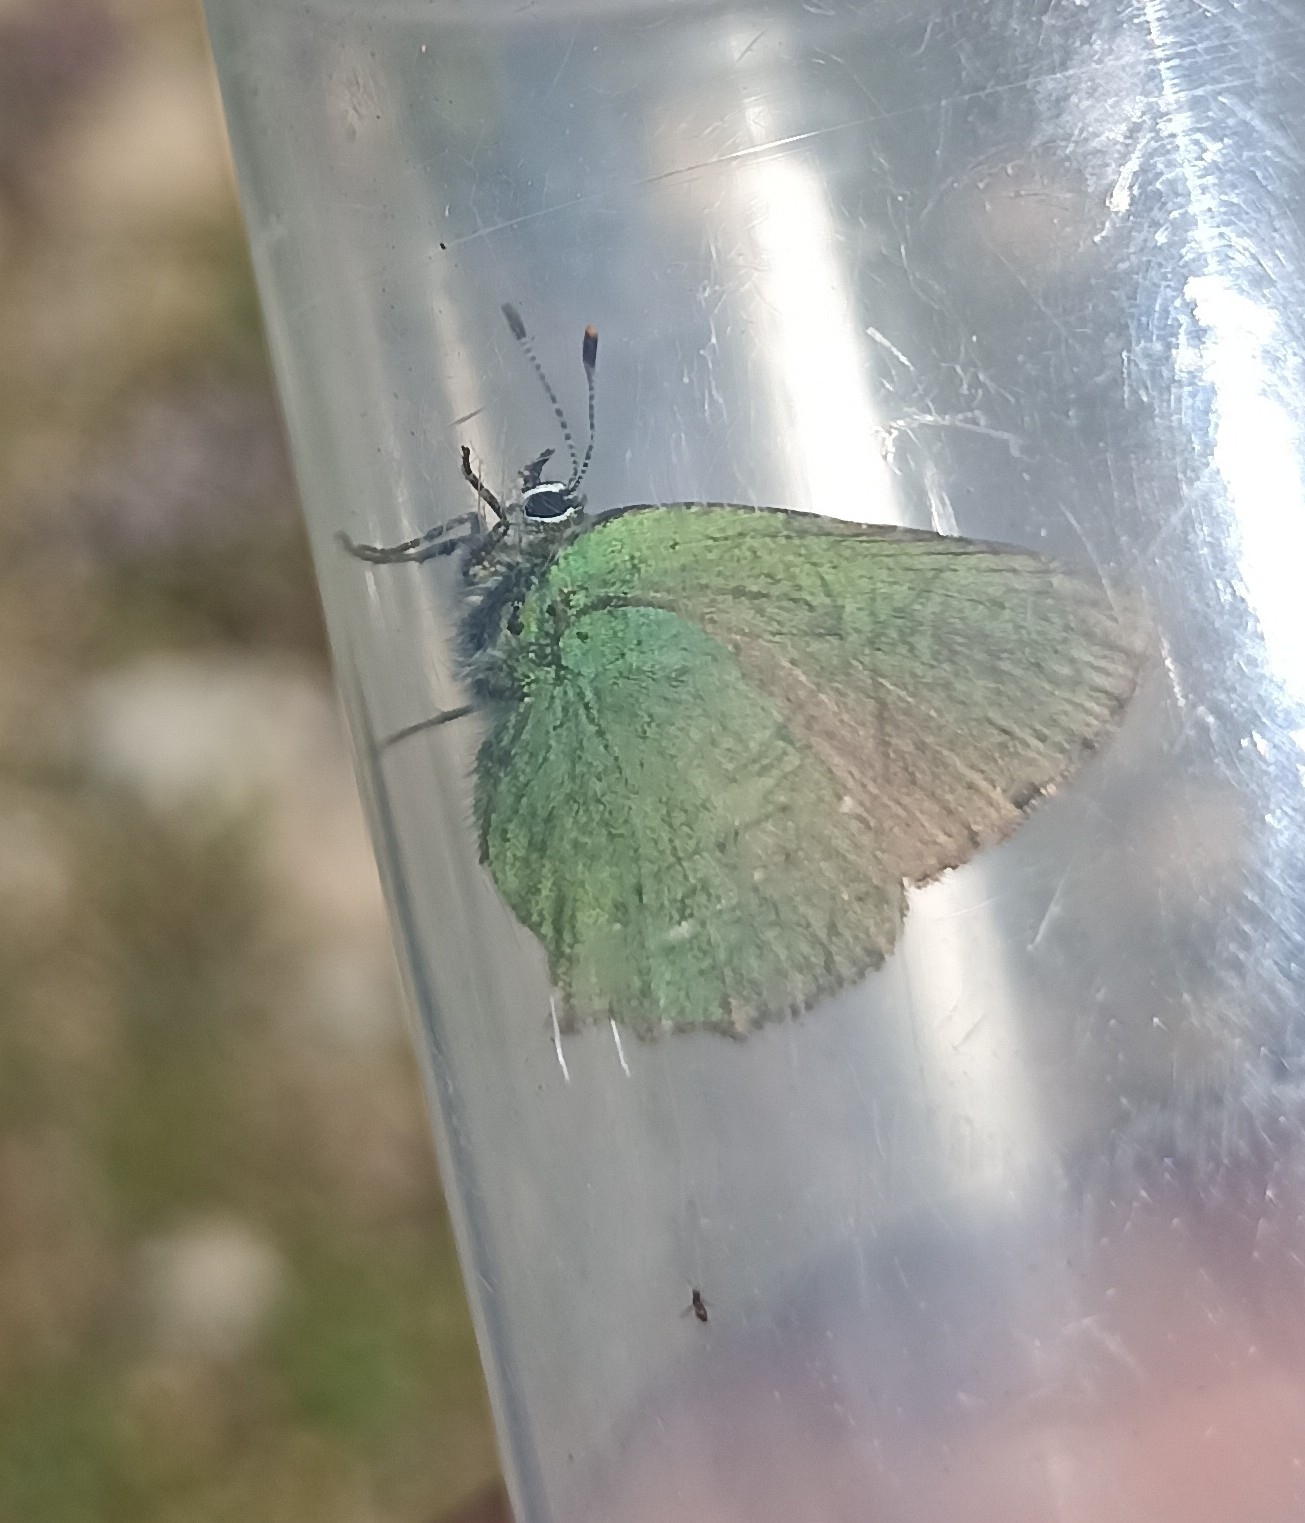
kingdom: Animalia
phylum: Arthropoda
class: Insecta
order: Lepidoptera
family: Lycaenidae
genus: Callophrys
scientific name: Callophrys rubi
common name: Green hairstreak
